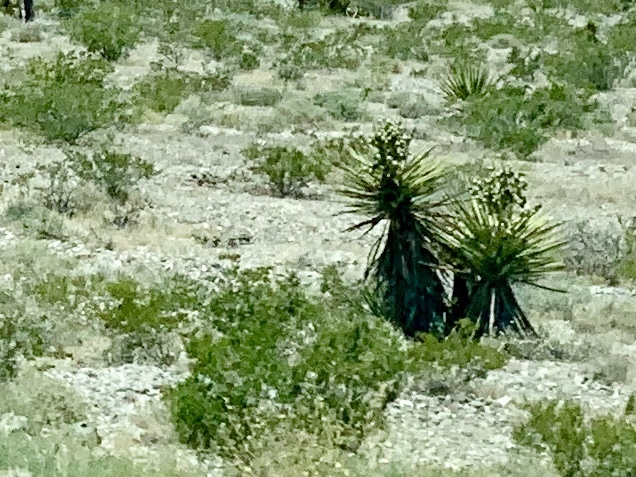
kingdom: Plantae
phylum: Tracheophyta
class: Liliopsida
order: Asparagales
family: Asparagaceae
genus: Yucca
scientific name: Yucca schidigera
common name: Mojave yucca
